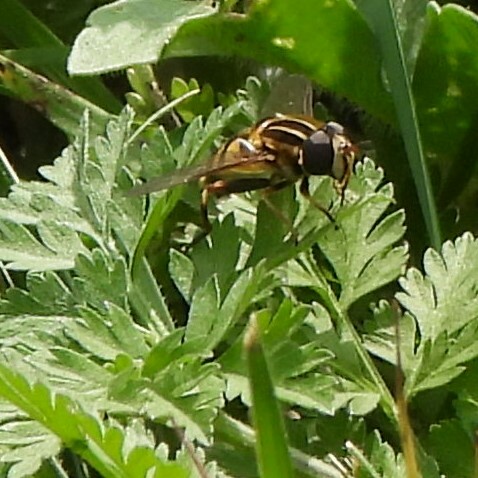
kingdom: Animalia
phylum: Arthropoda
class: Insecta
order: Diptera
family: Syrphidae
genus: Helophilus
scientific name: Helophilus fasciatus
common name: Narrow-headed marsh fly
